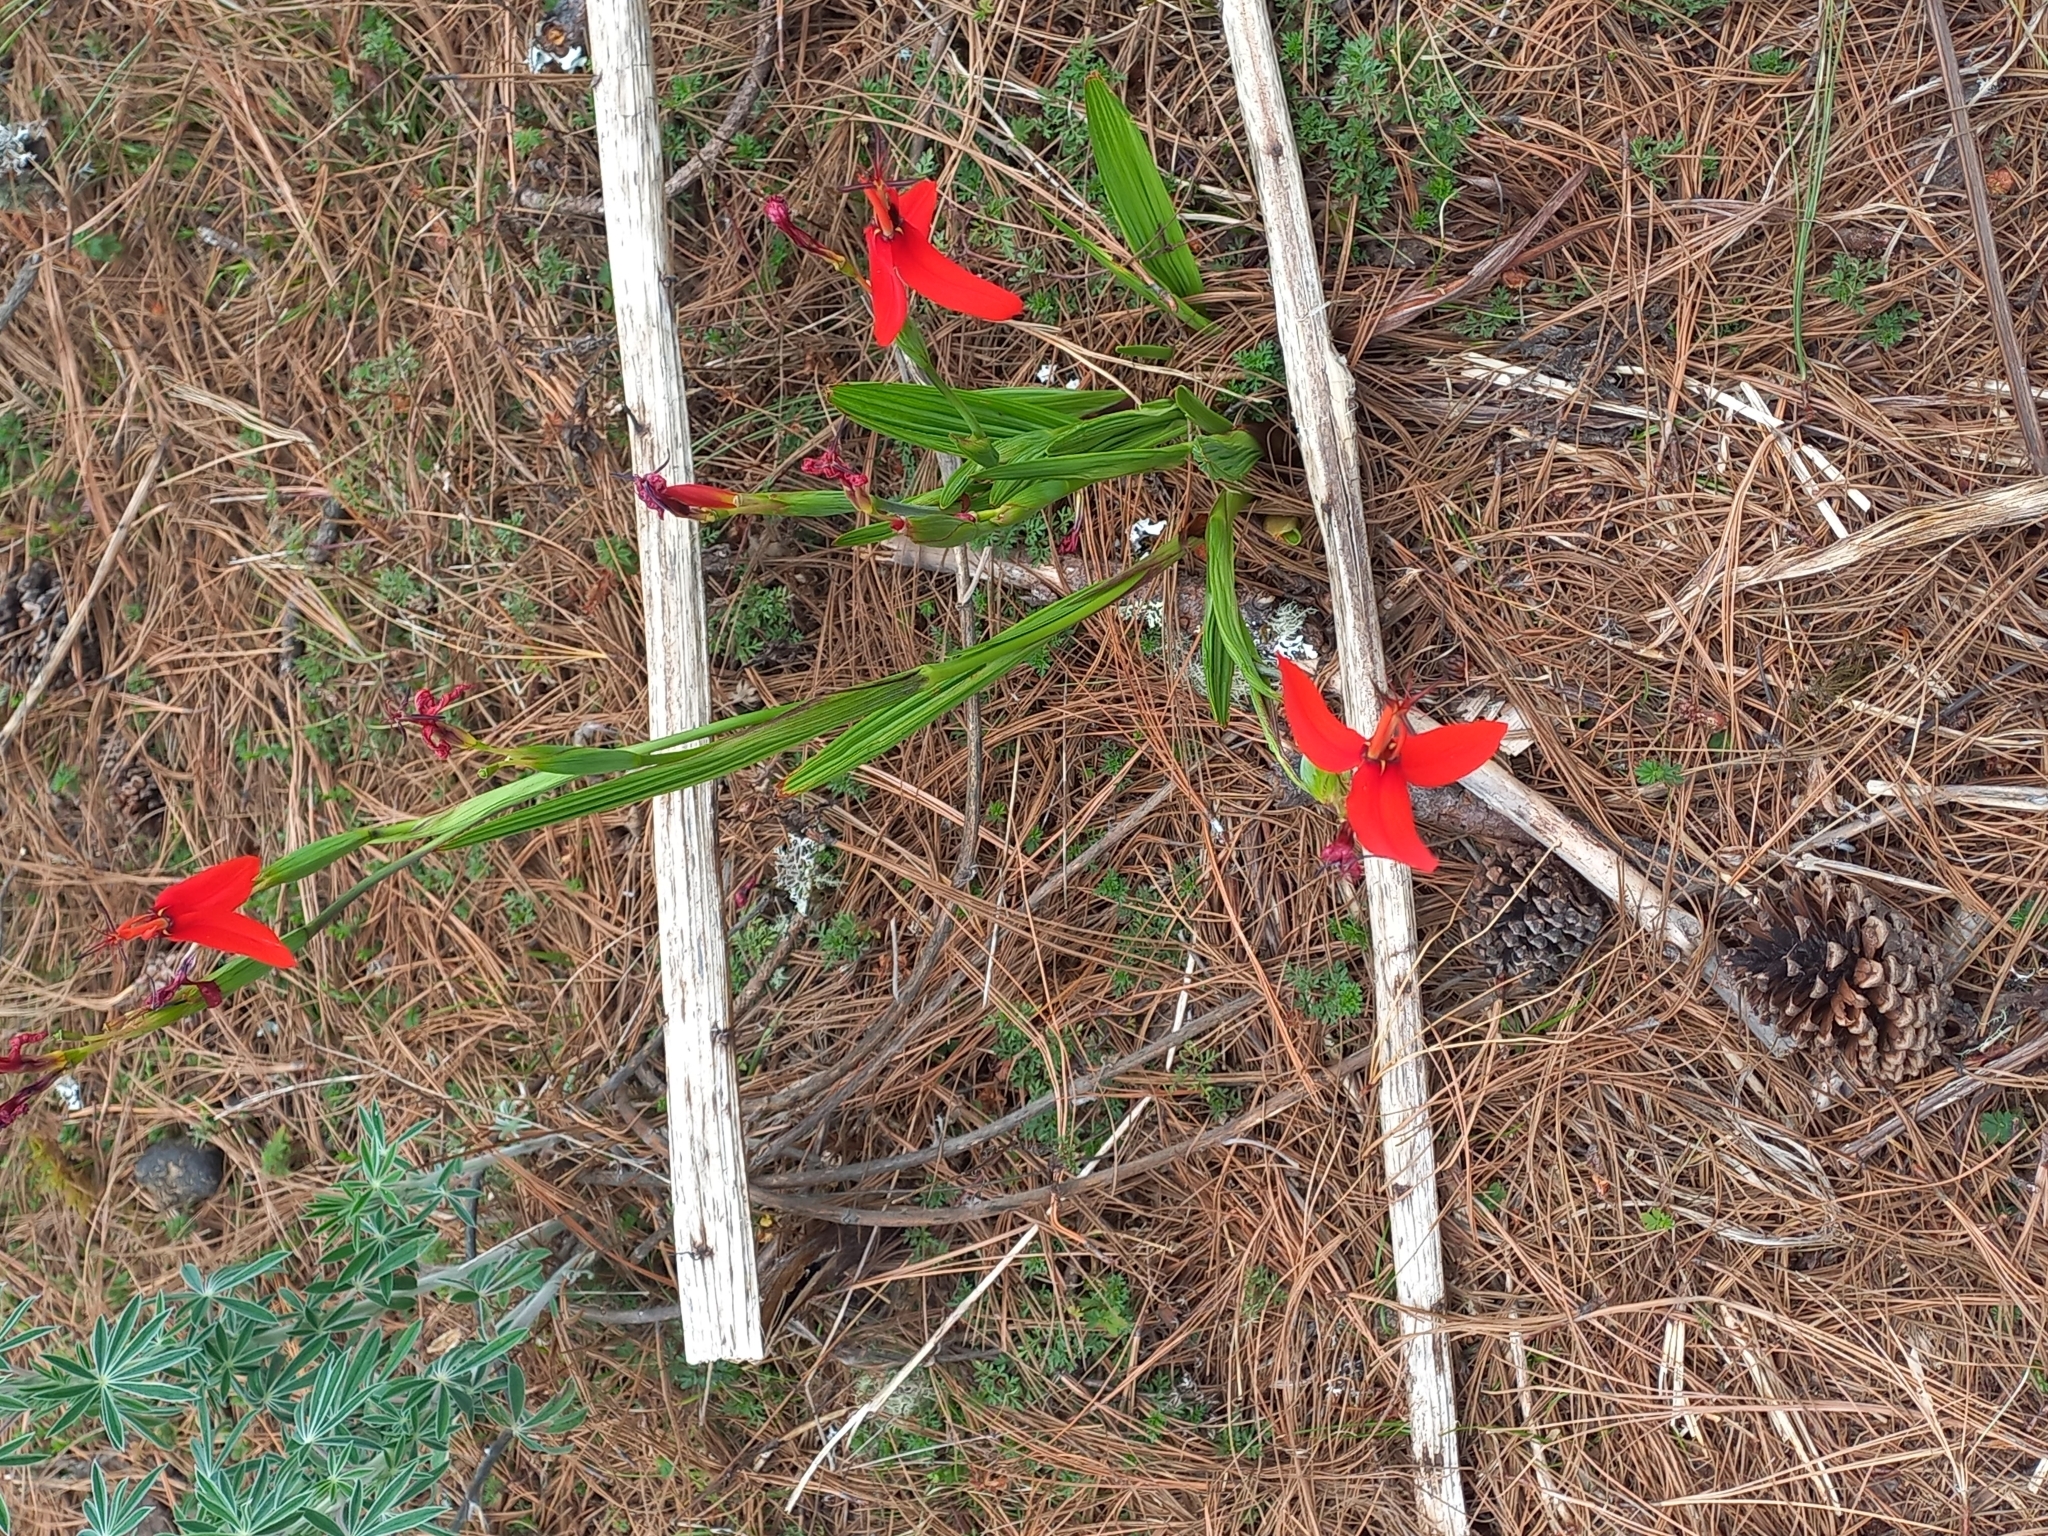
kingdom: Plantae
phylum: Tracheophyta
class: Liliopsida
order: Asparagales
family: Iridaceae
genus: Tigridia
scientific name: Tigridia orthantha
